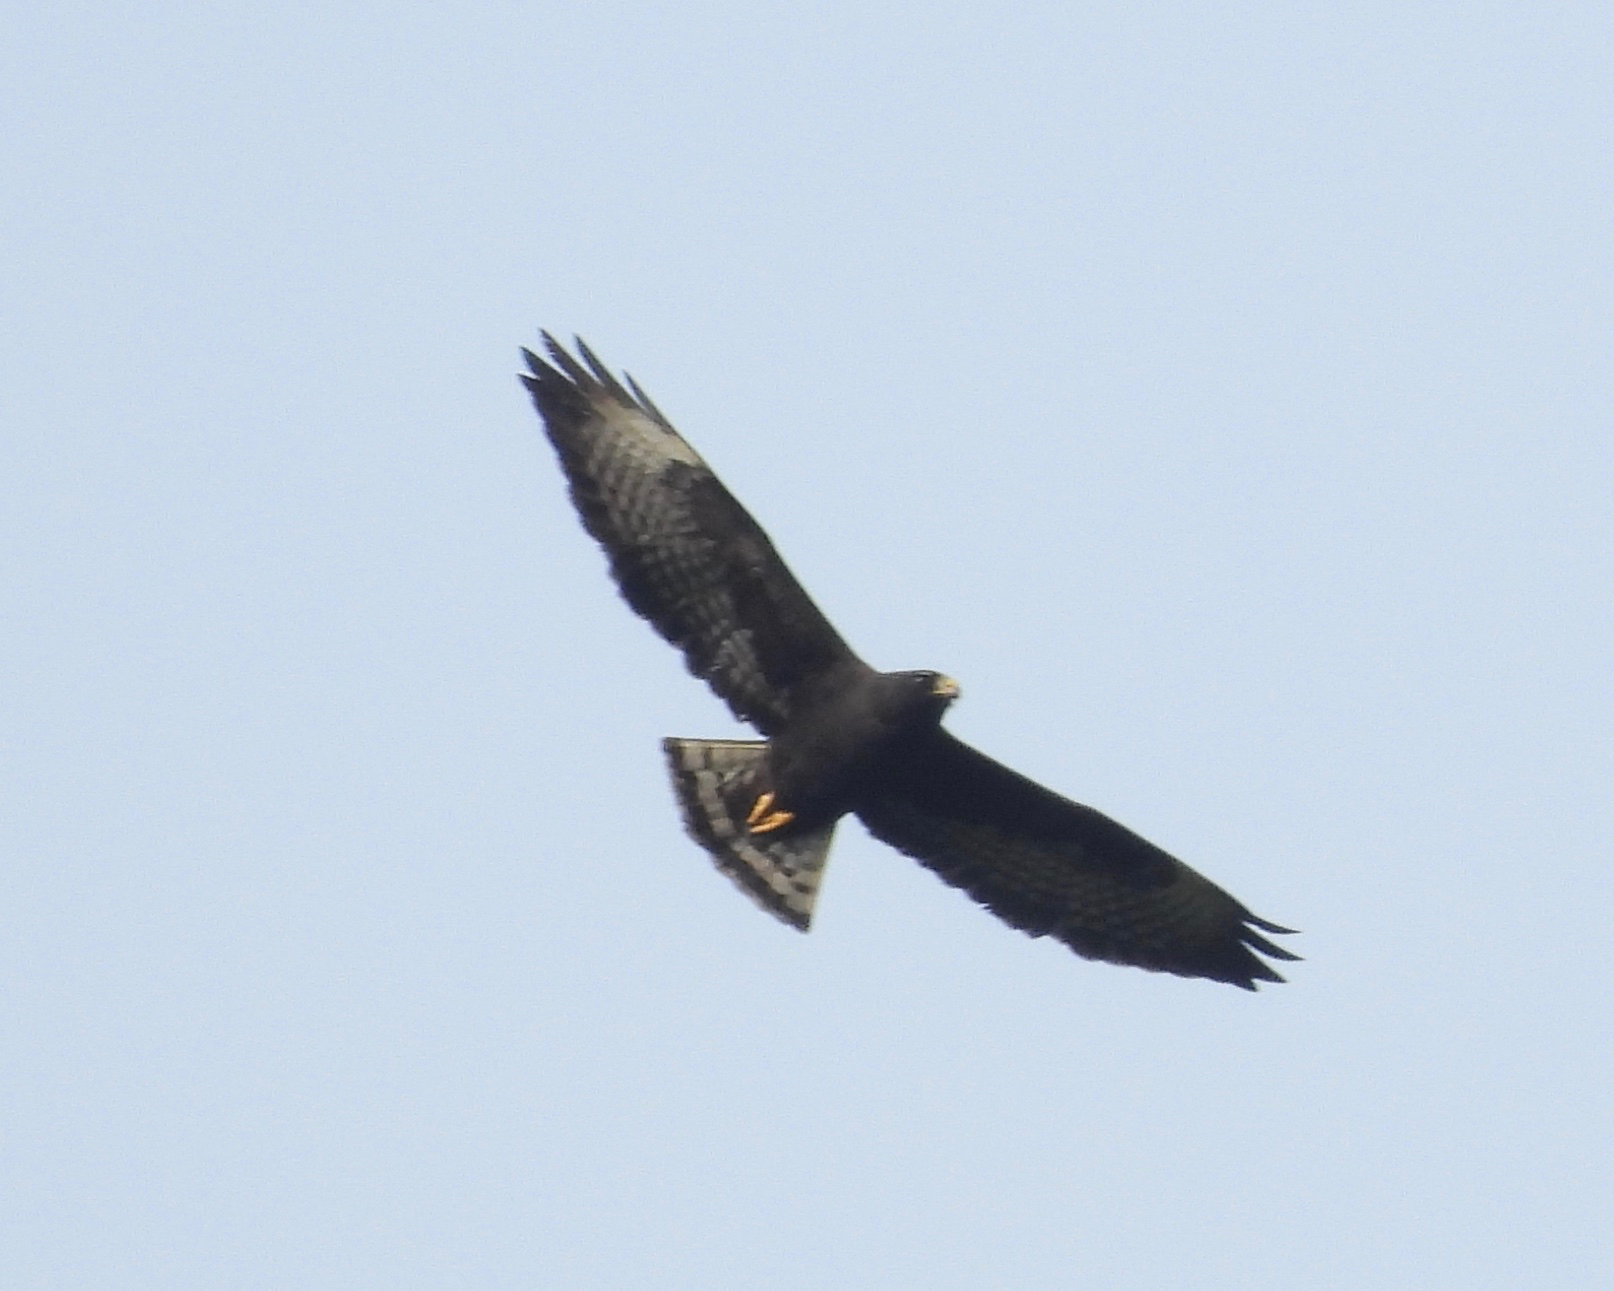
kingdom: Animalia
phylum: Chordata
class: Aves
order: Accipitriformes
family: Accipitridae
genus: Buteo
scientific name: Buteo brachyurus
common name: Short-tailed hawk
